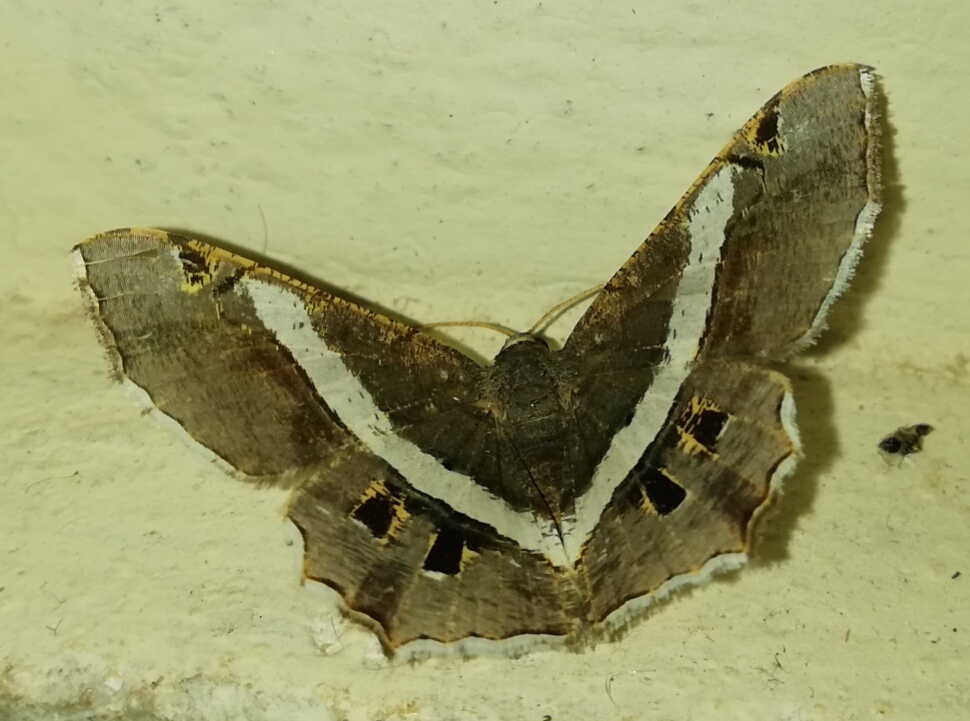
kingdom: Animalia
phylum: Arthropoda
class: Insecta
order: Lepidoptera
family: Geometridae
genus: Chiasmia
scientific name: Chiasmia eleonora
